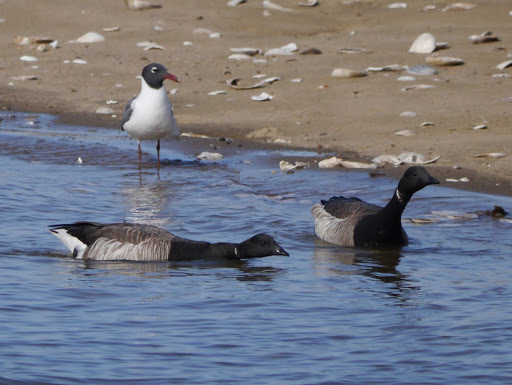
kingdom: Animalia
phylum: Chordata
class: Aves
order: Anseriformes
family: Anatidae
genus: Branta
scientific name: Branta bernicla
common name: Brant goose
